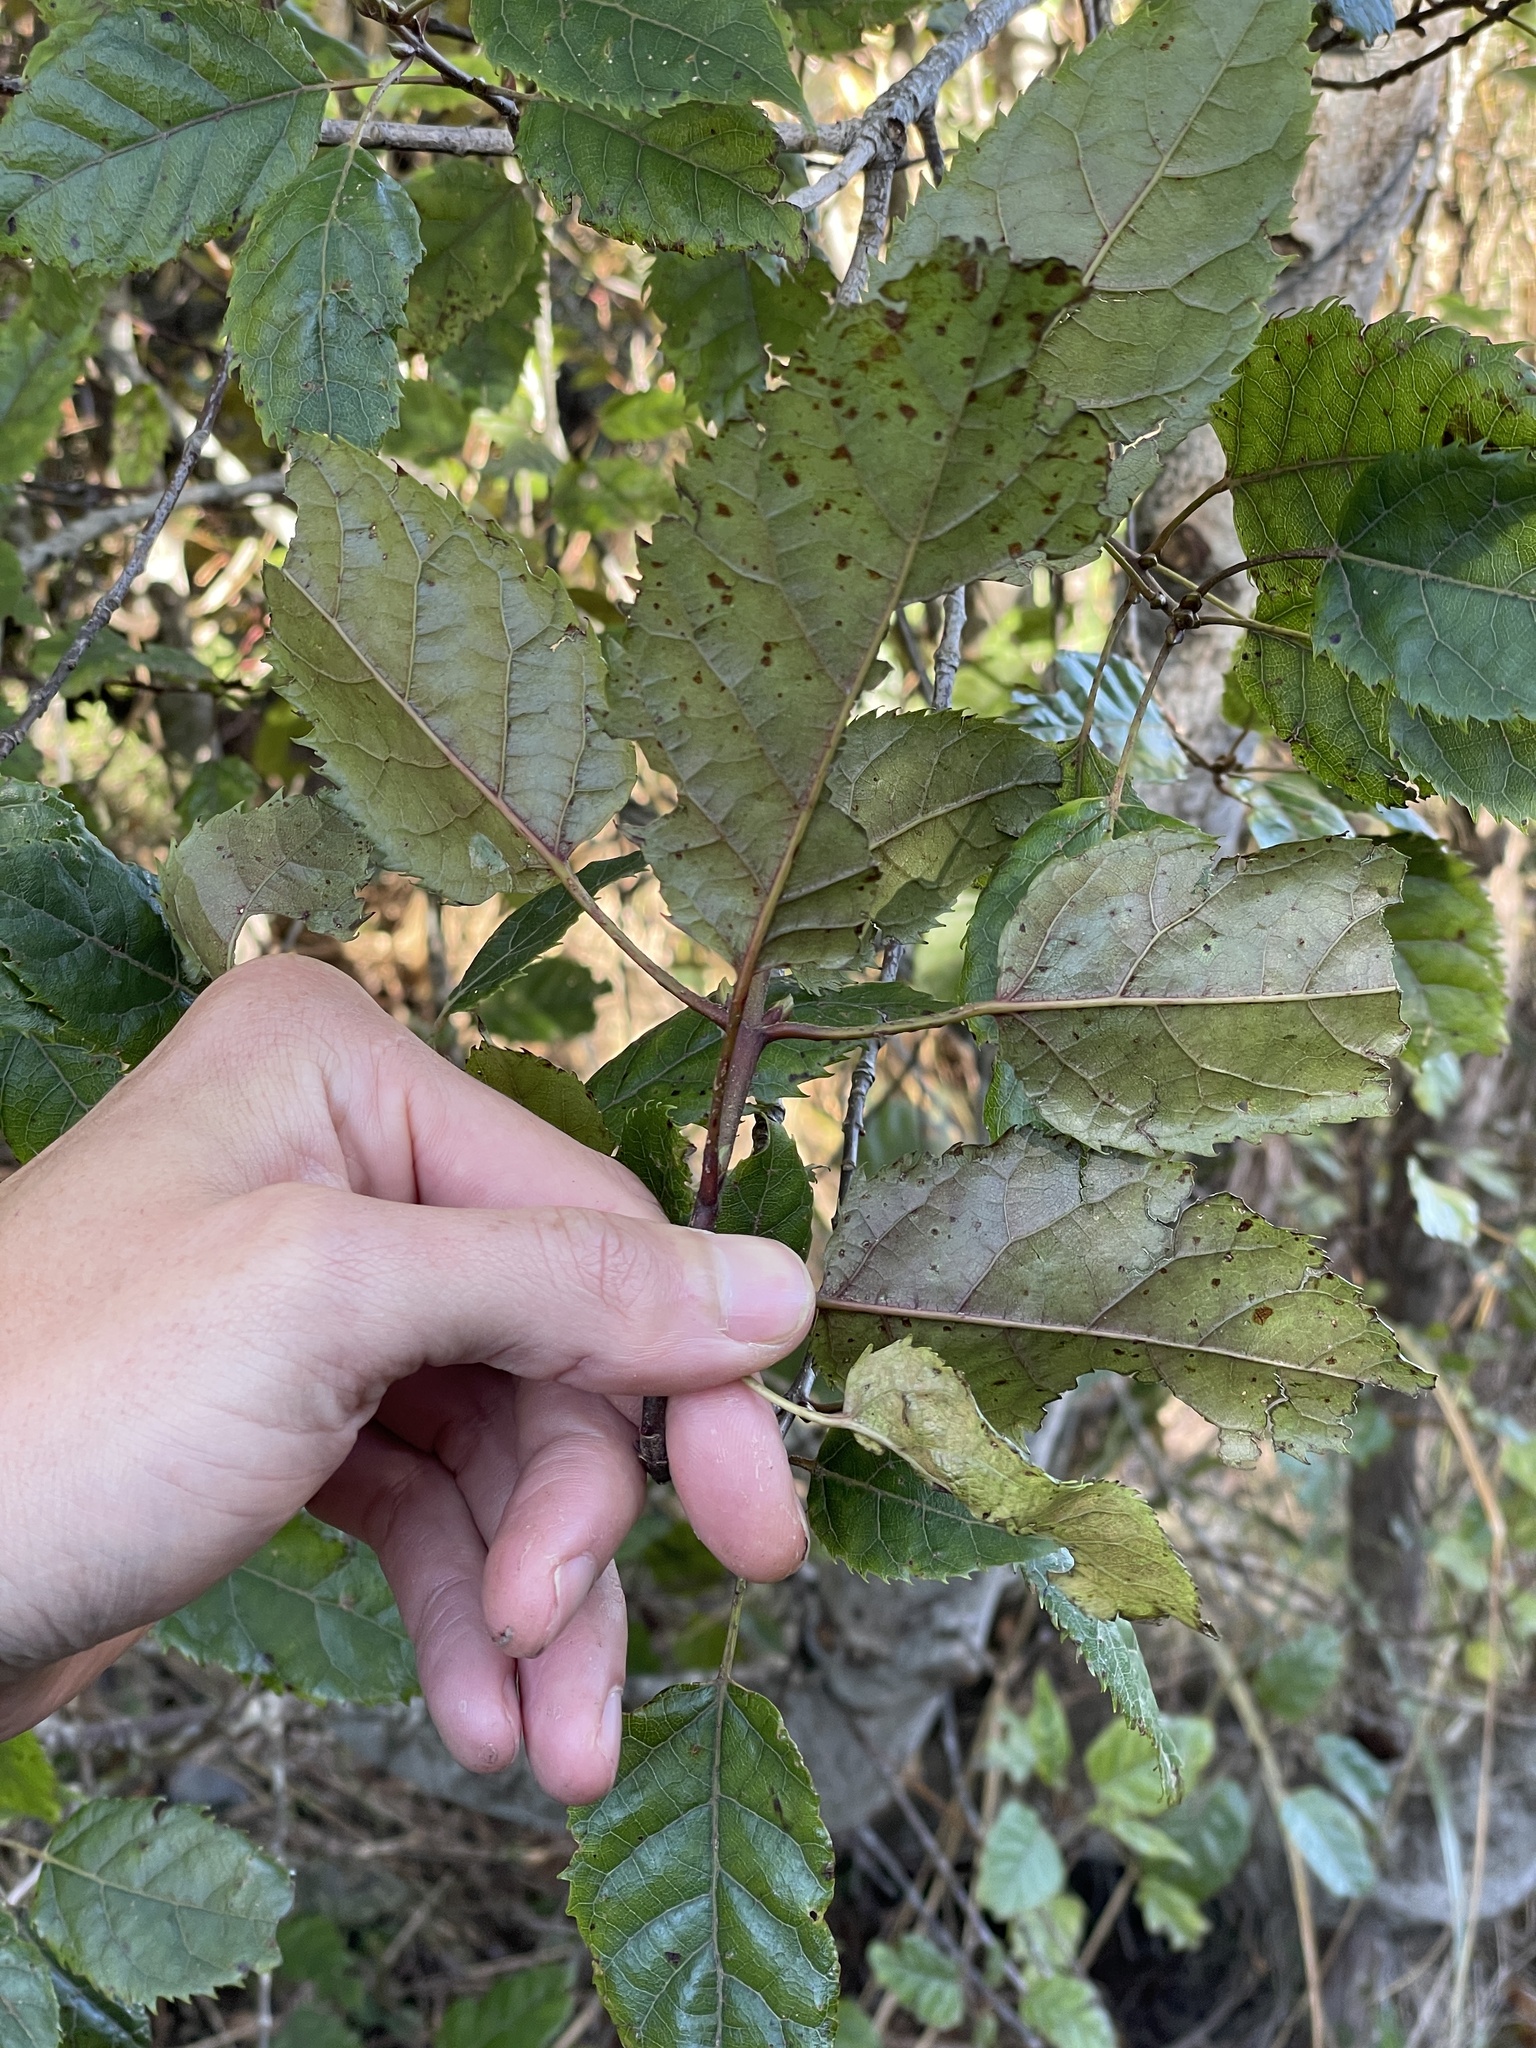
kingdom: Plantae
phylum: Tracheophyta
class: Magnoliopsida
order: Oxalidales
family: Elaeocarpaceae
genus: Aristotelia
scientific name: Aristotelia serrata
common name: New zealand wineberry
